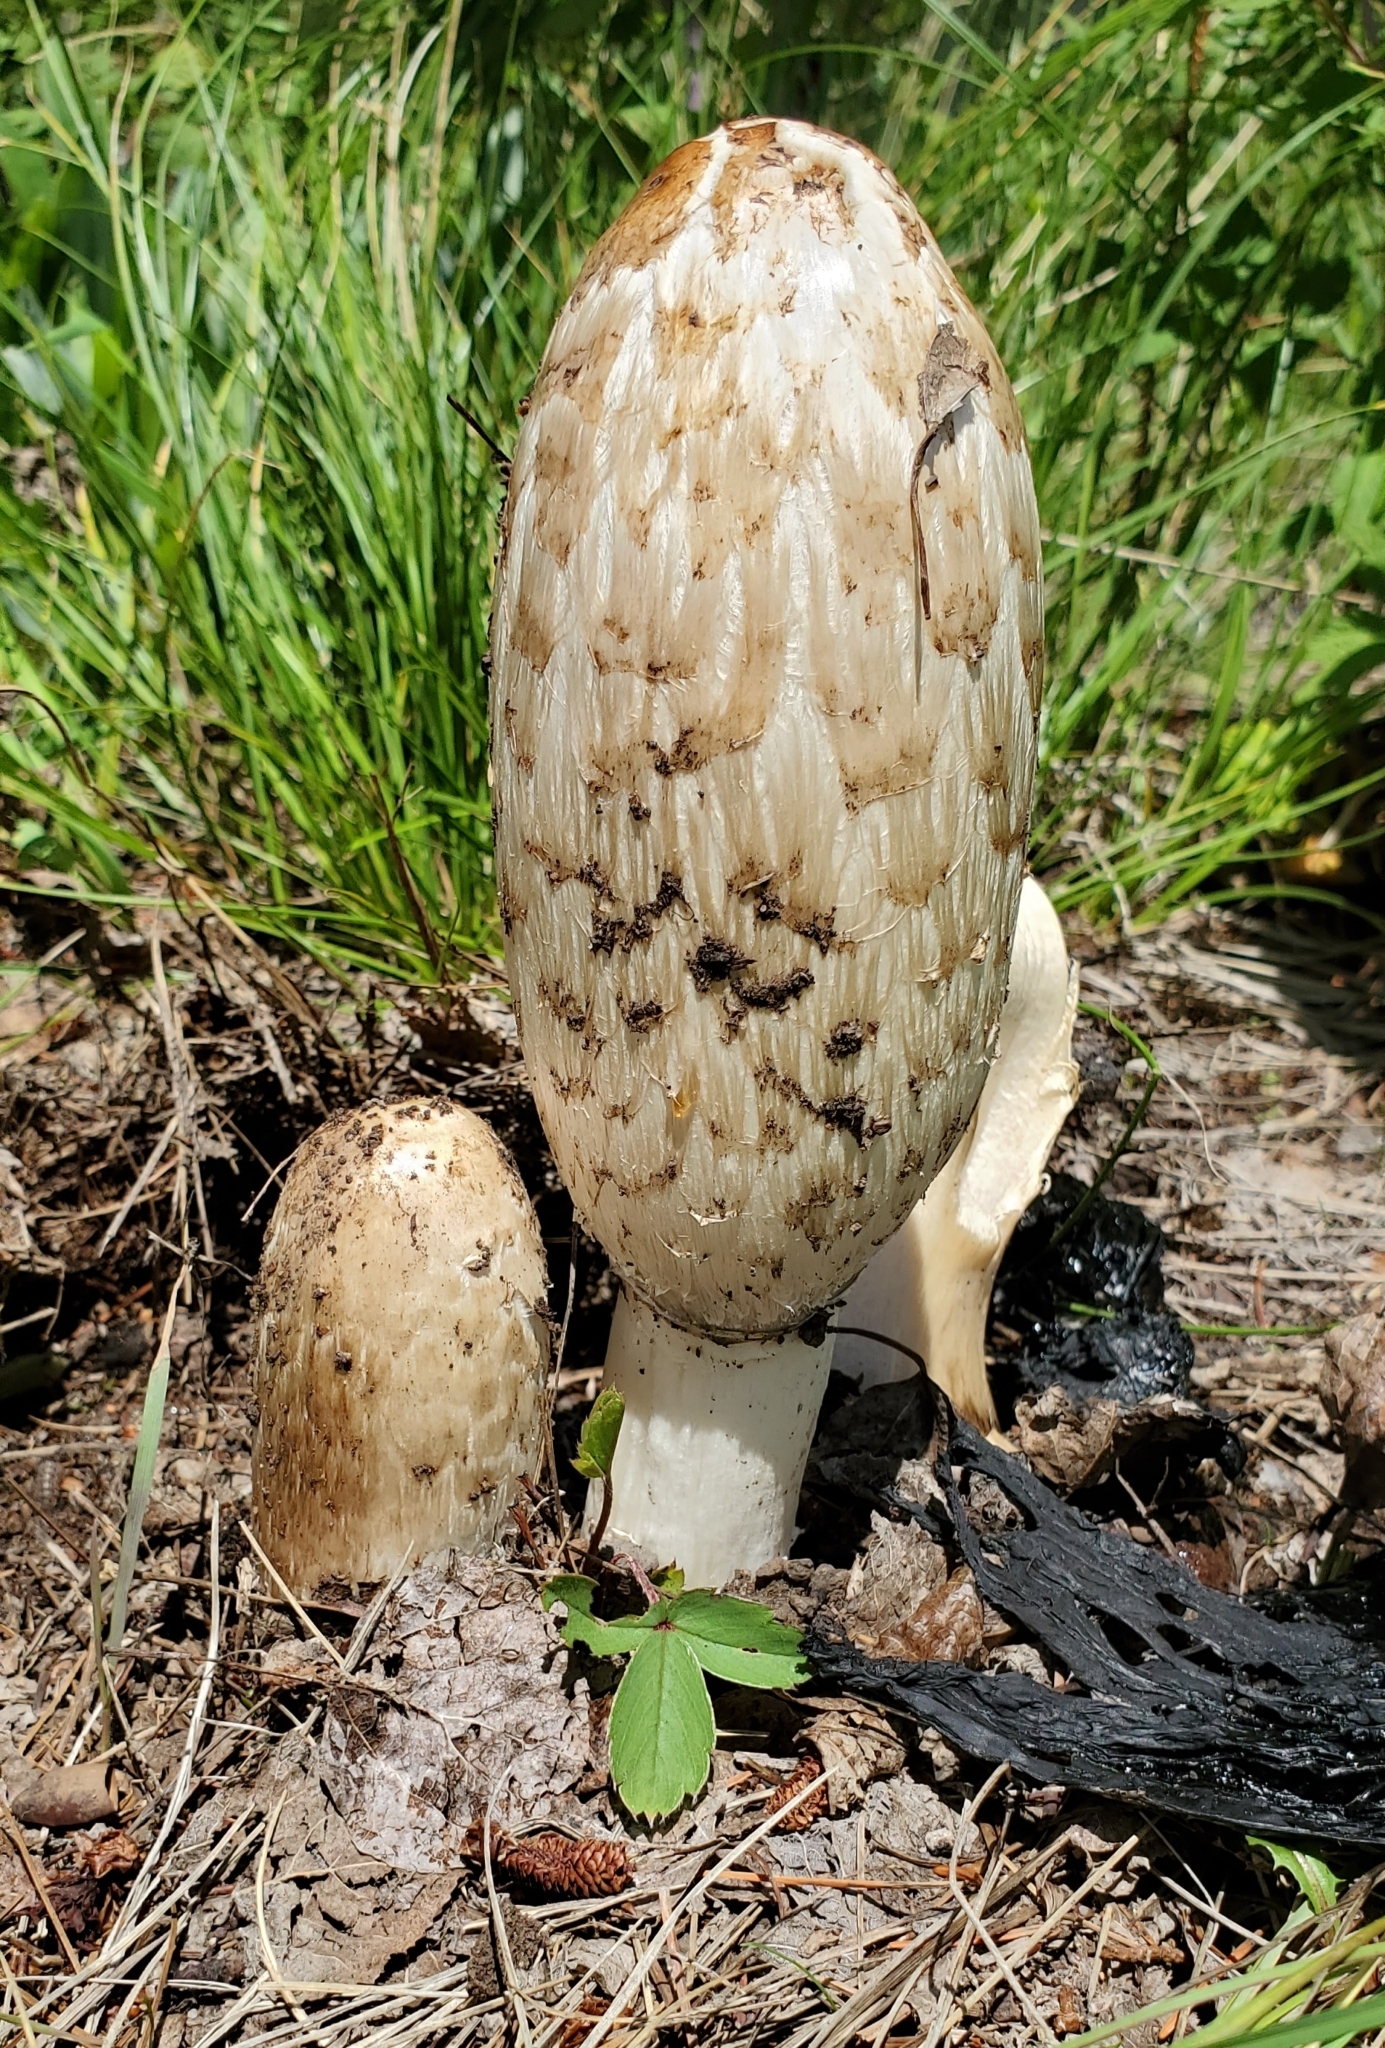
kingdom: Fungi
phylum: Basidiomycota
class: Agaricomycetes
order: Agaricales
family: Agaricaceae
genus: Coprinus
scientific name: Coprinus comatus
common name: Lawyer's wig
